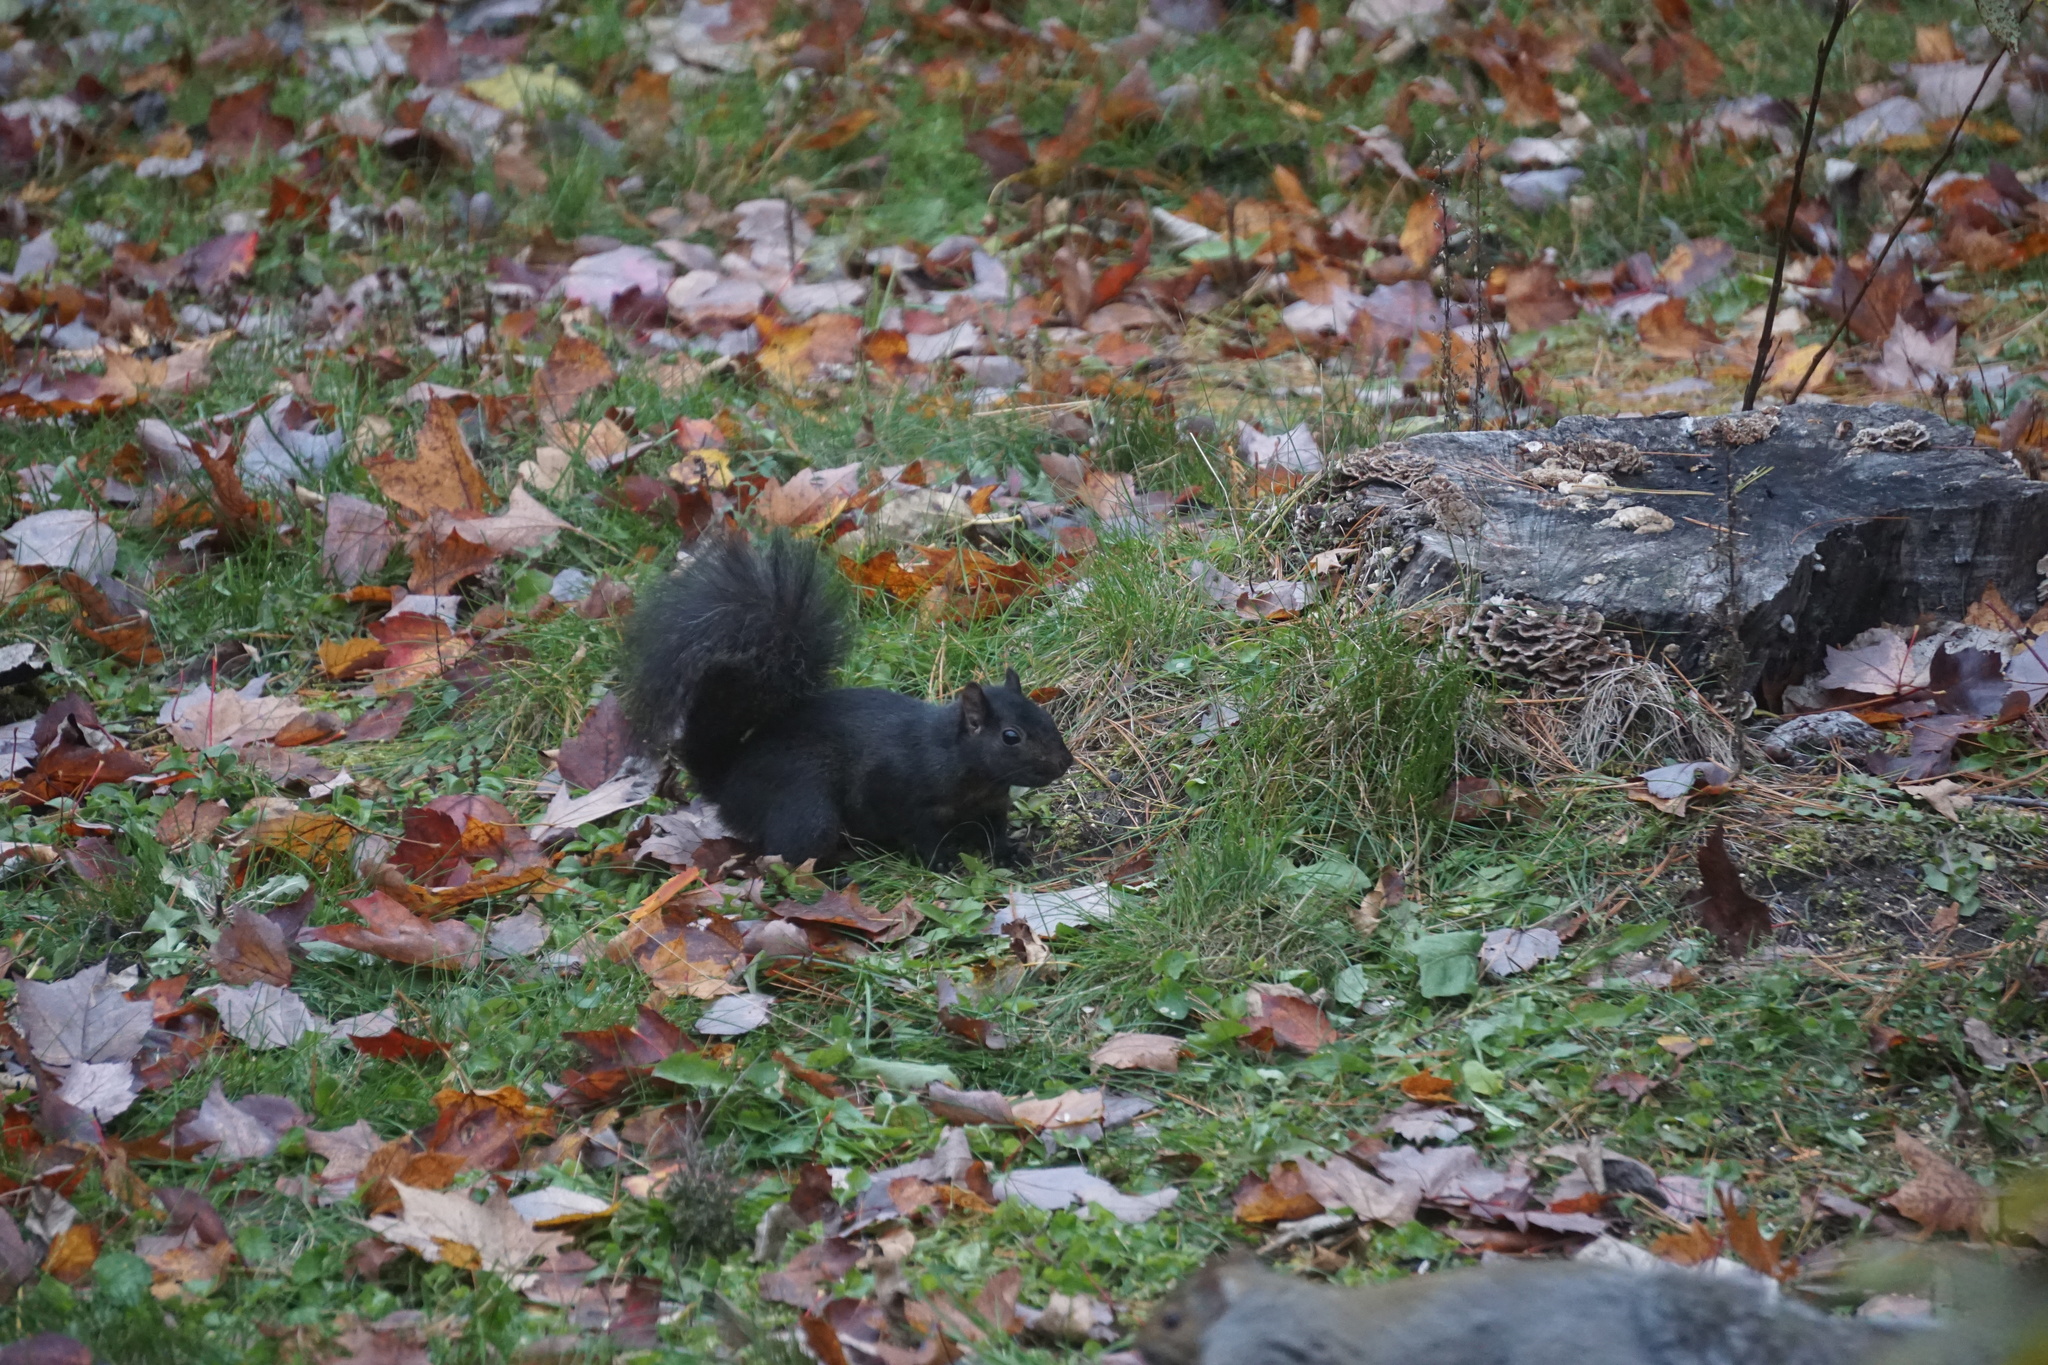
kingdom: Animalia
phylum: Chordata
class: Mammalia
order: Rodentia
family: Sciuridae
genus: Sciurus
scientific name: Sciurus carolinensis
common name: Eastern gray squirrel
